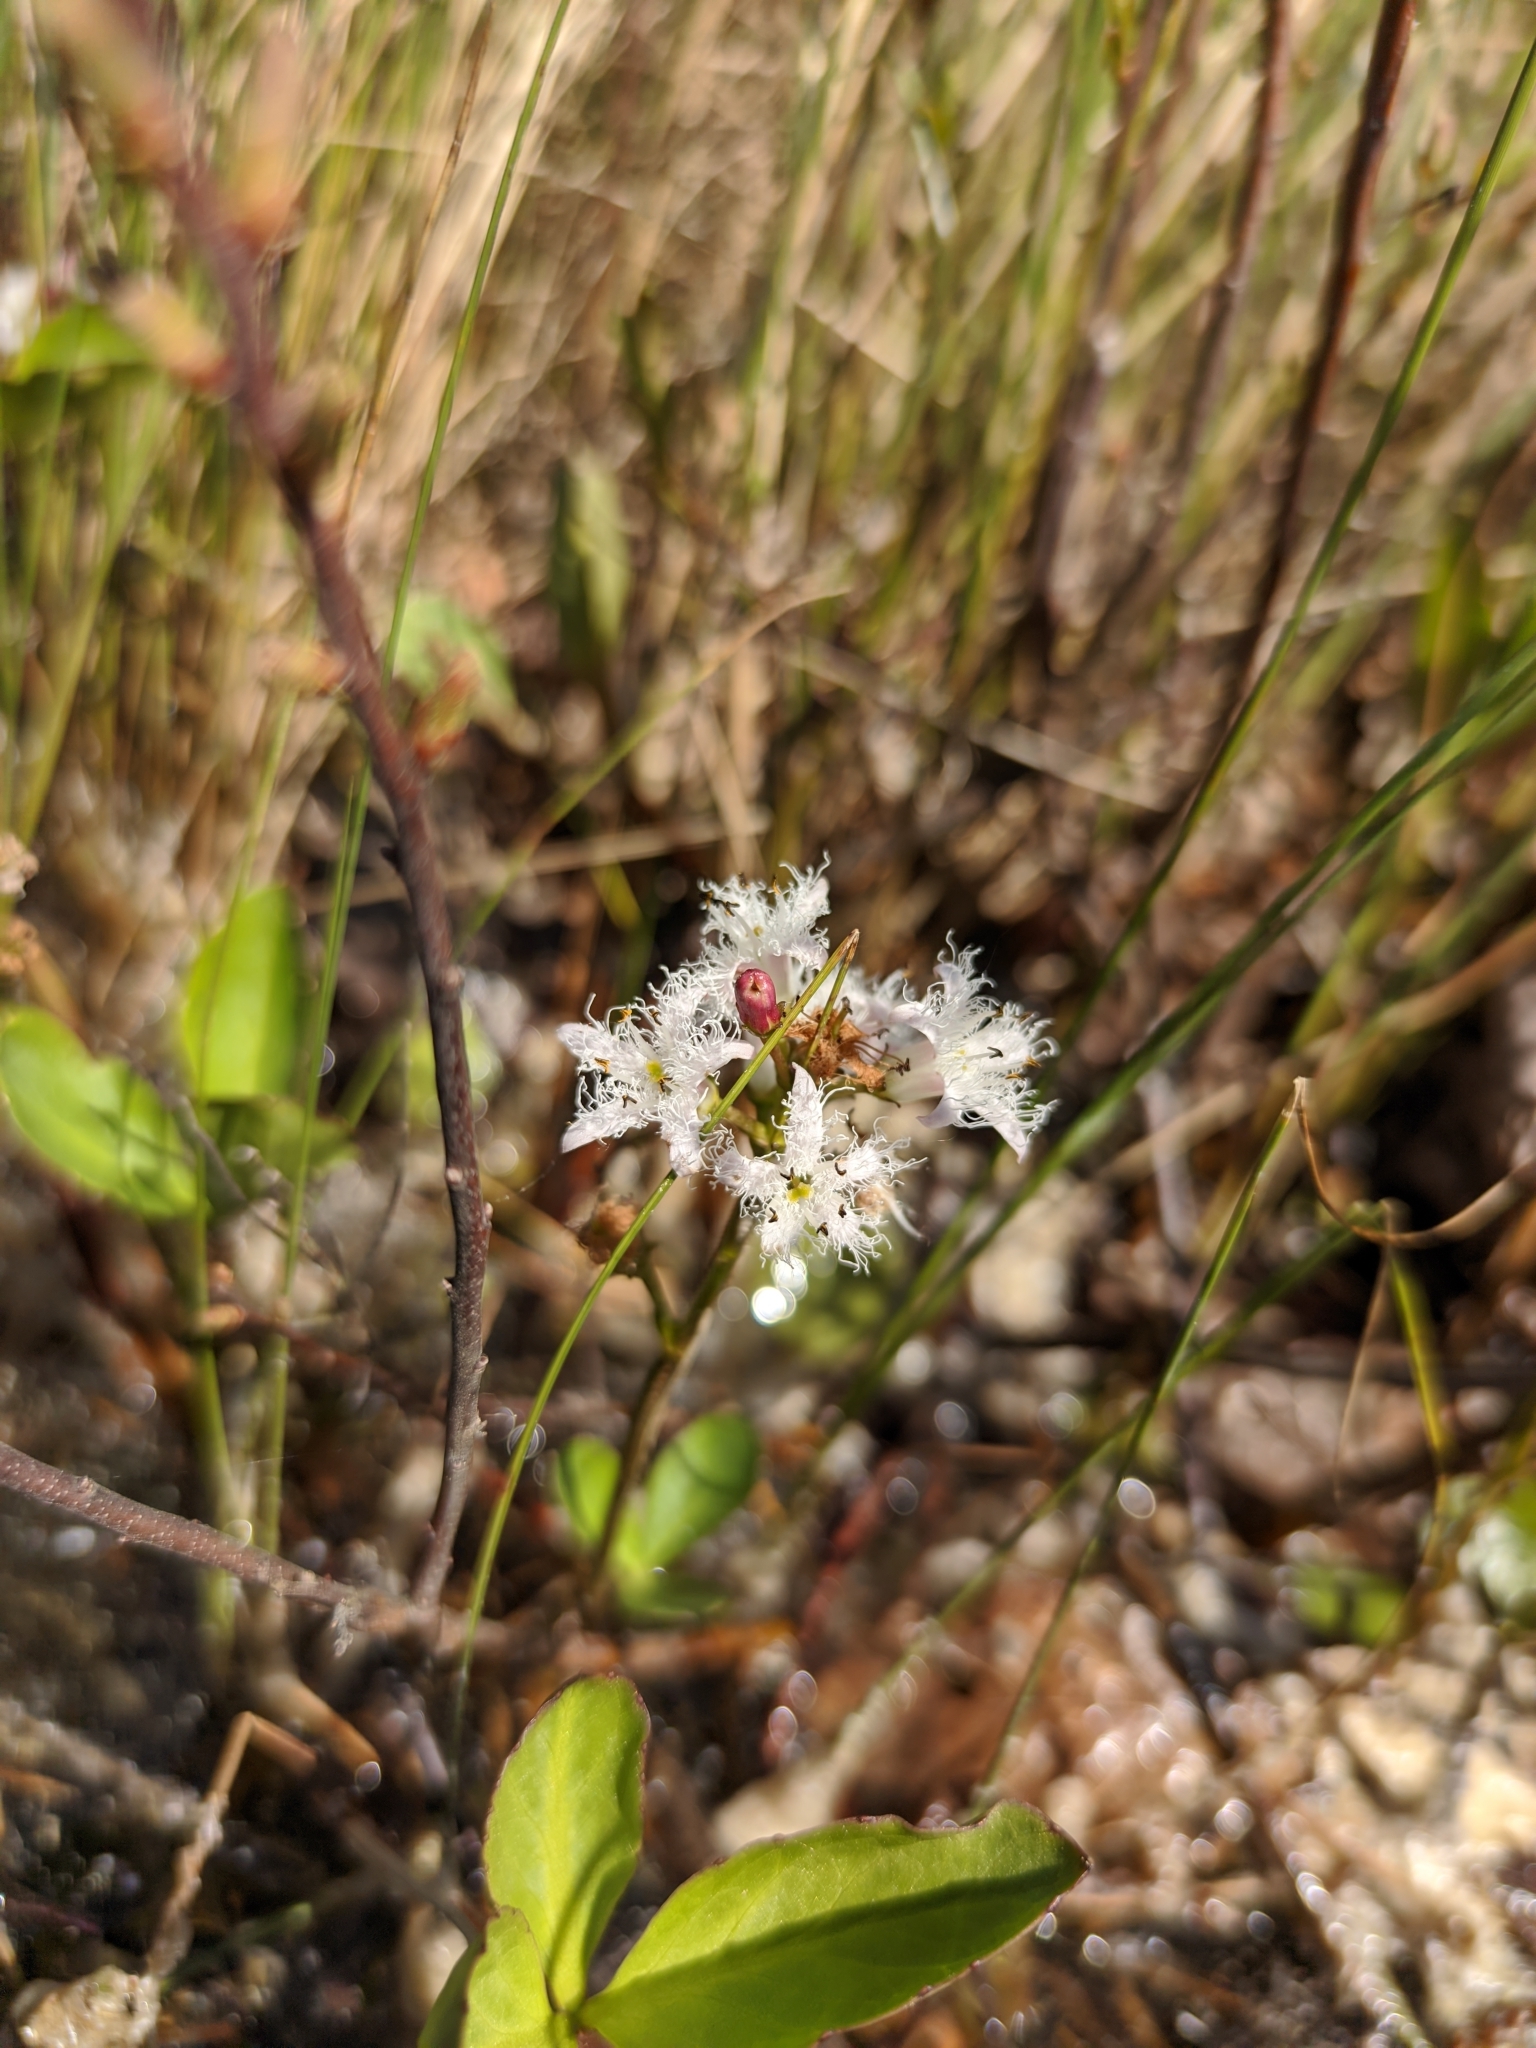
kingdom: Plantae
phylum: Tracheophyta
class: Magnoliopsida
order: Asterales
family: Menyanthaceae
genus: Menyanthes
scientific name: Menyanthes trifoliata
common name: Bogbean
